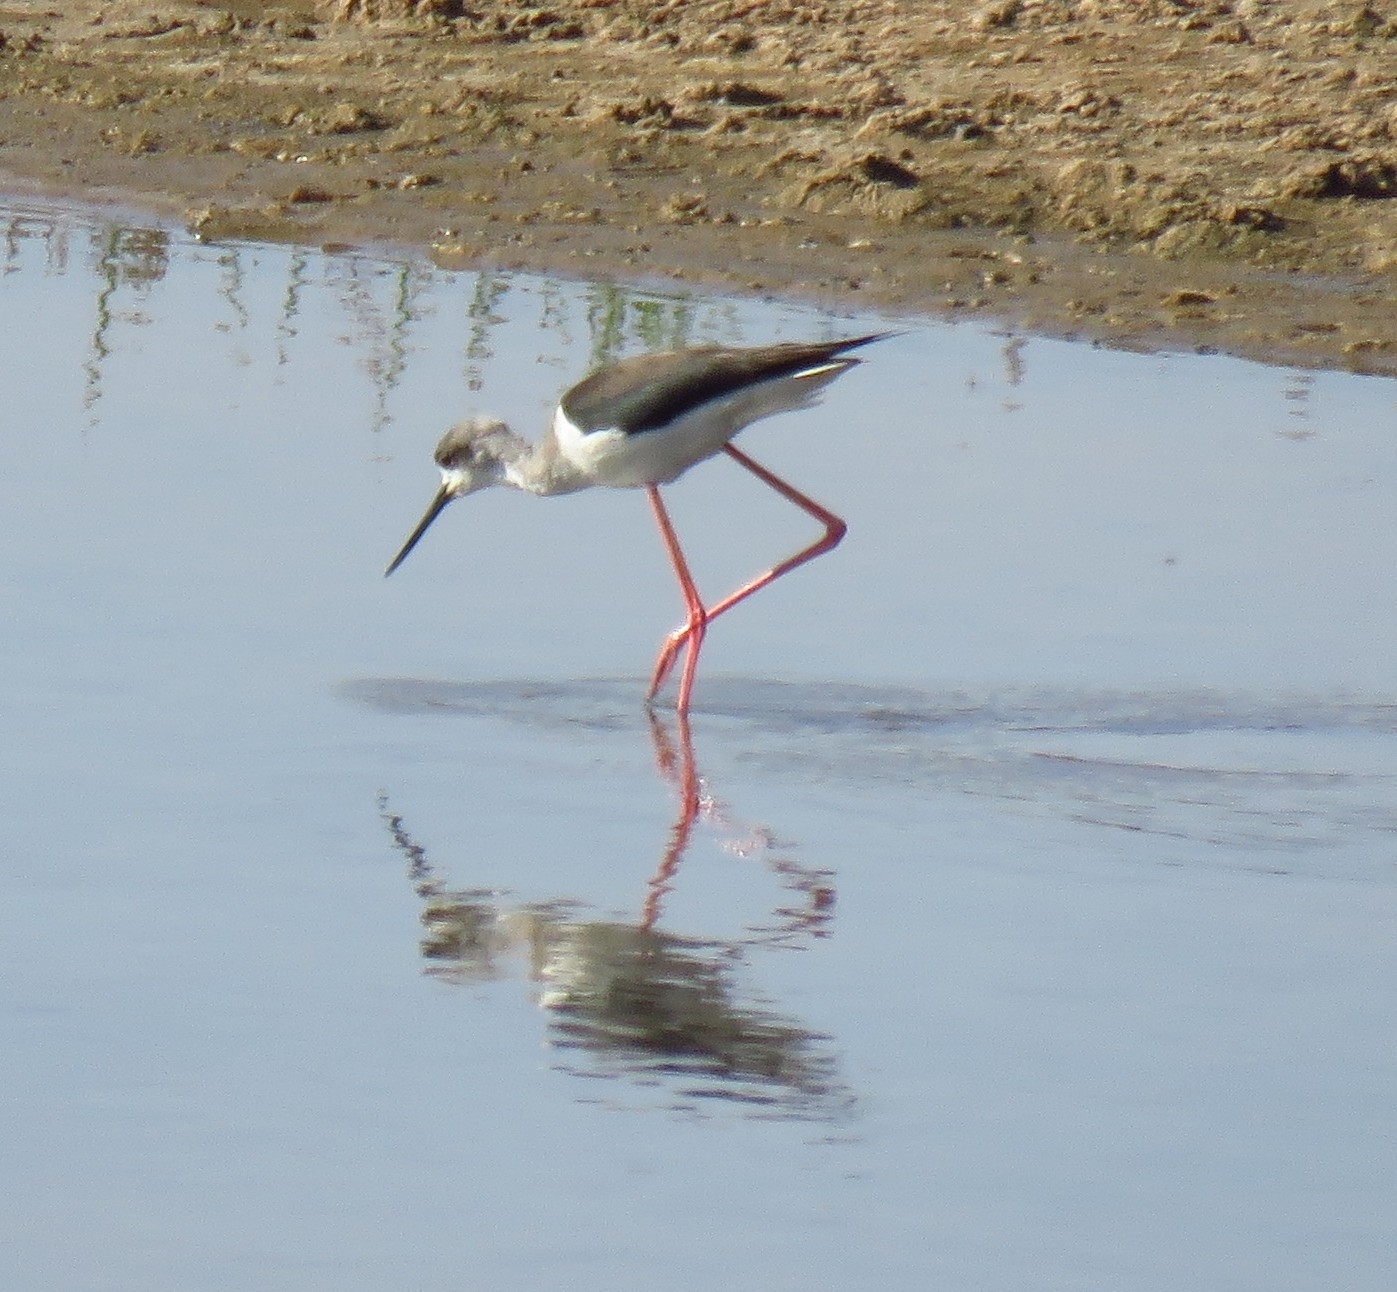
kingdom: Animalia
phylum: Chordata
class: Aves
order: Charadriiformes
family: Recurvirostridae
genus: Himantopus
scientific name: Himantopus himantopus
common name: Black-winged stilt
